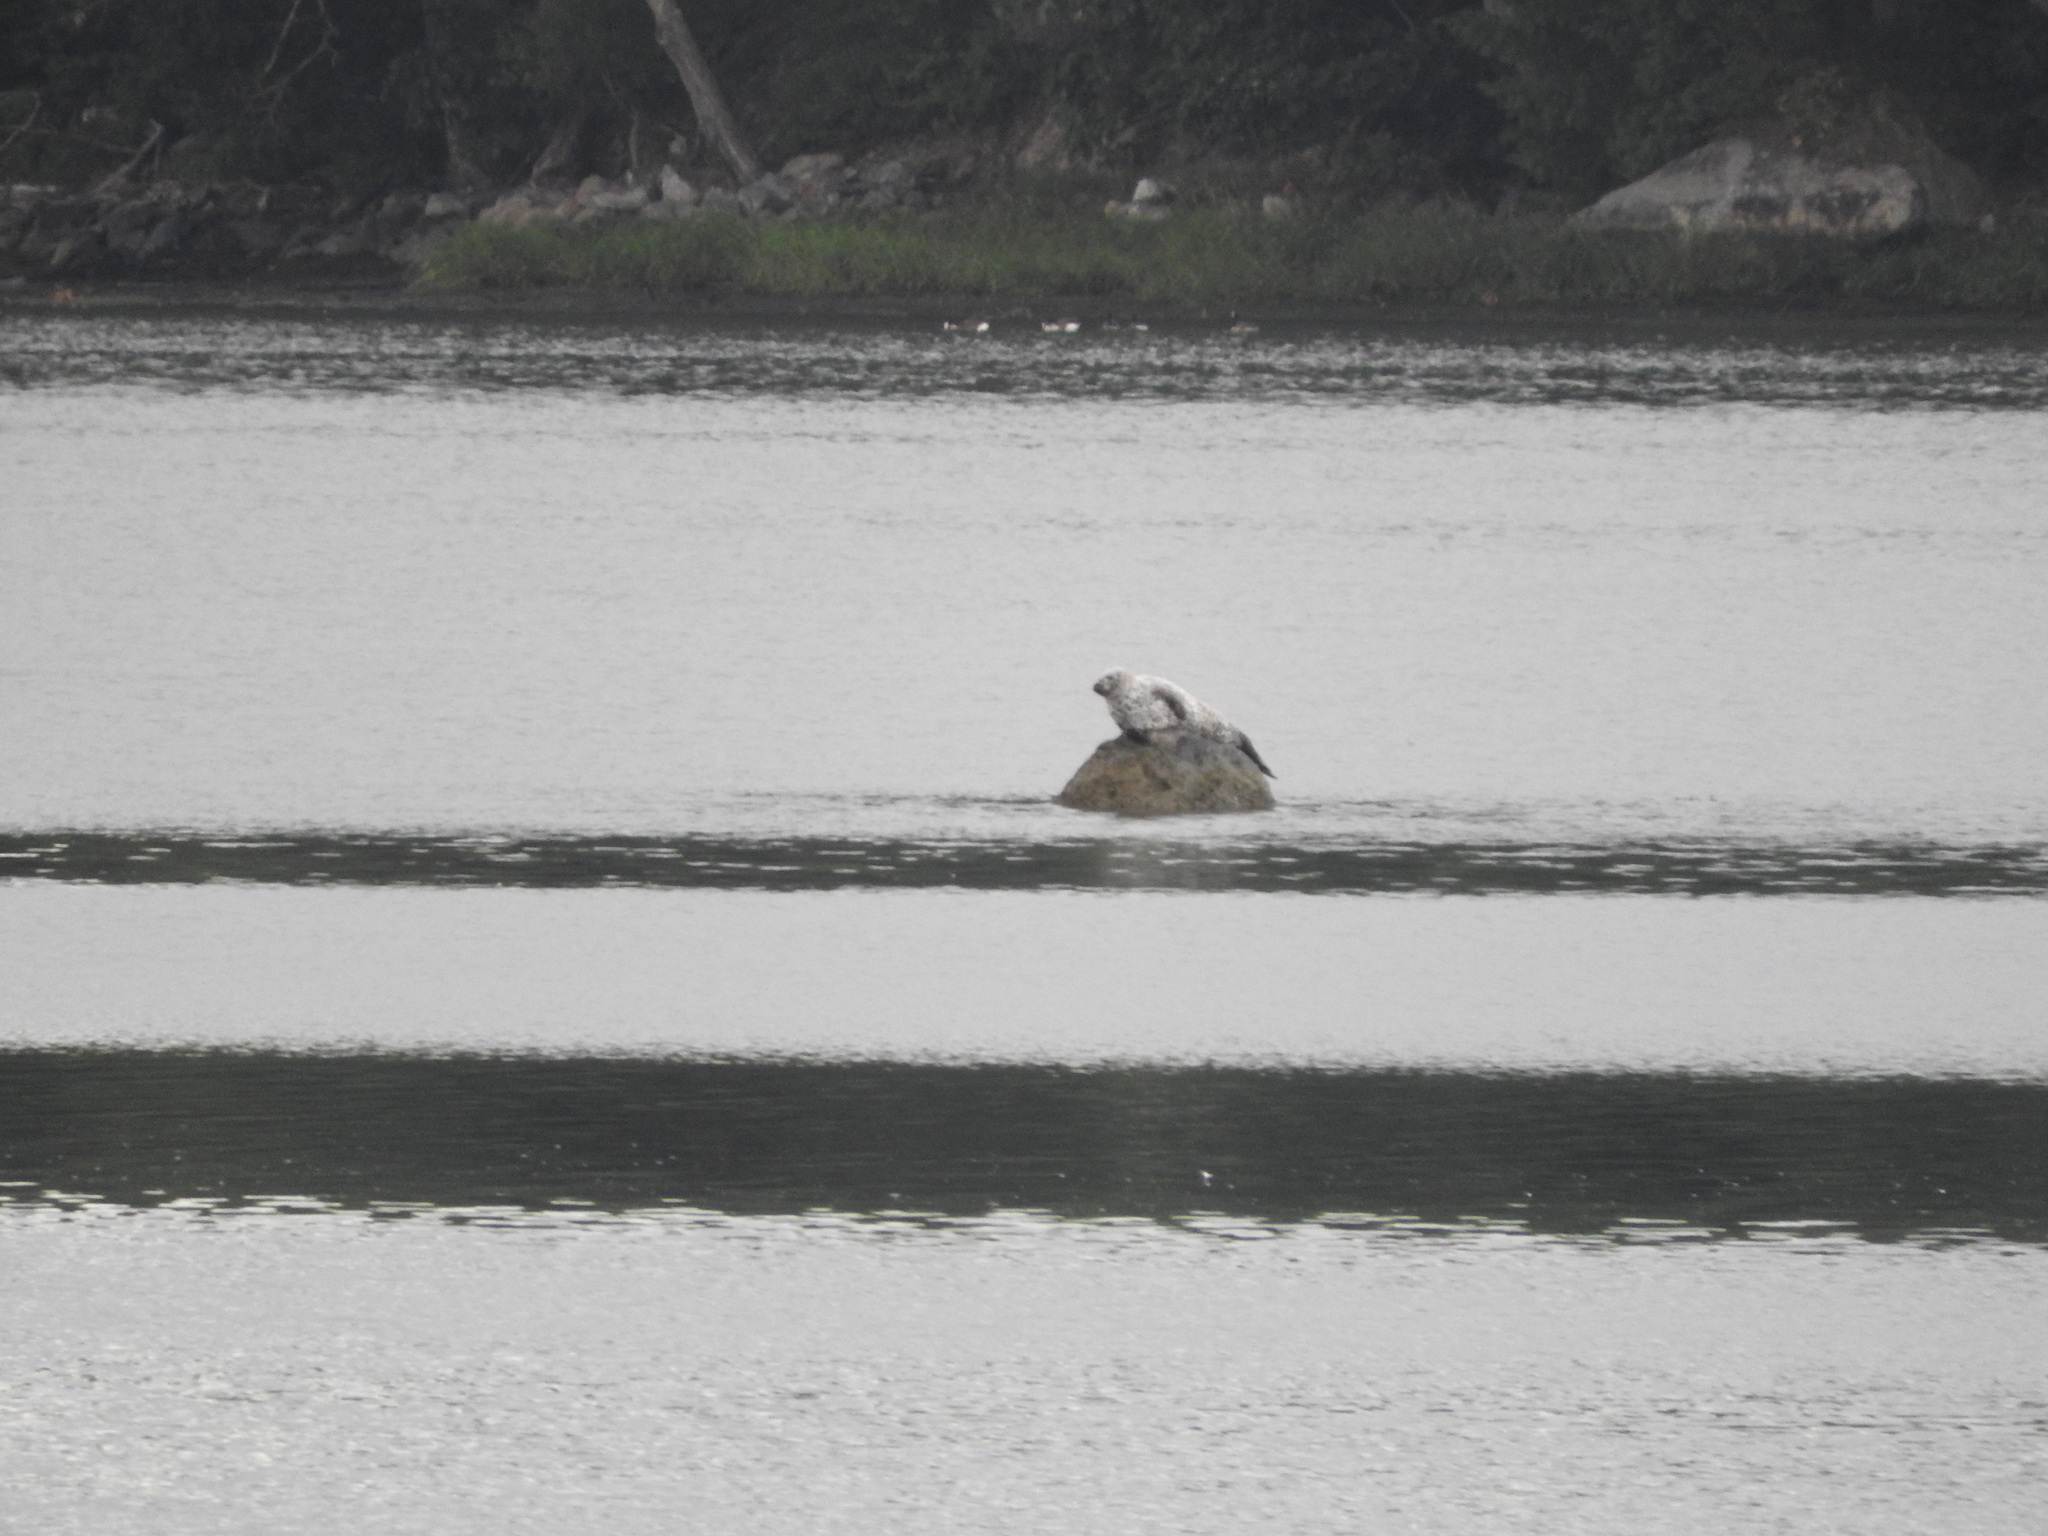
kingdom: Animalia
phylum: Chordata
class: Mammalia
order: Carnivora
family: Phocidae
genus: Phoca
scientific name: Phoca vitulina
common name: Harbor seal
